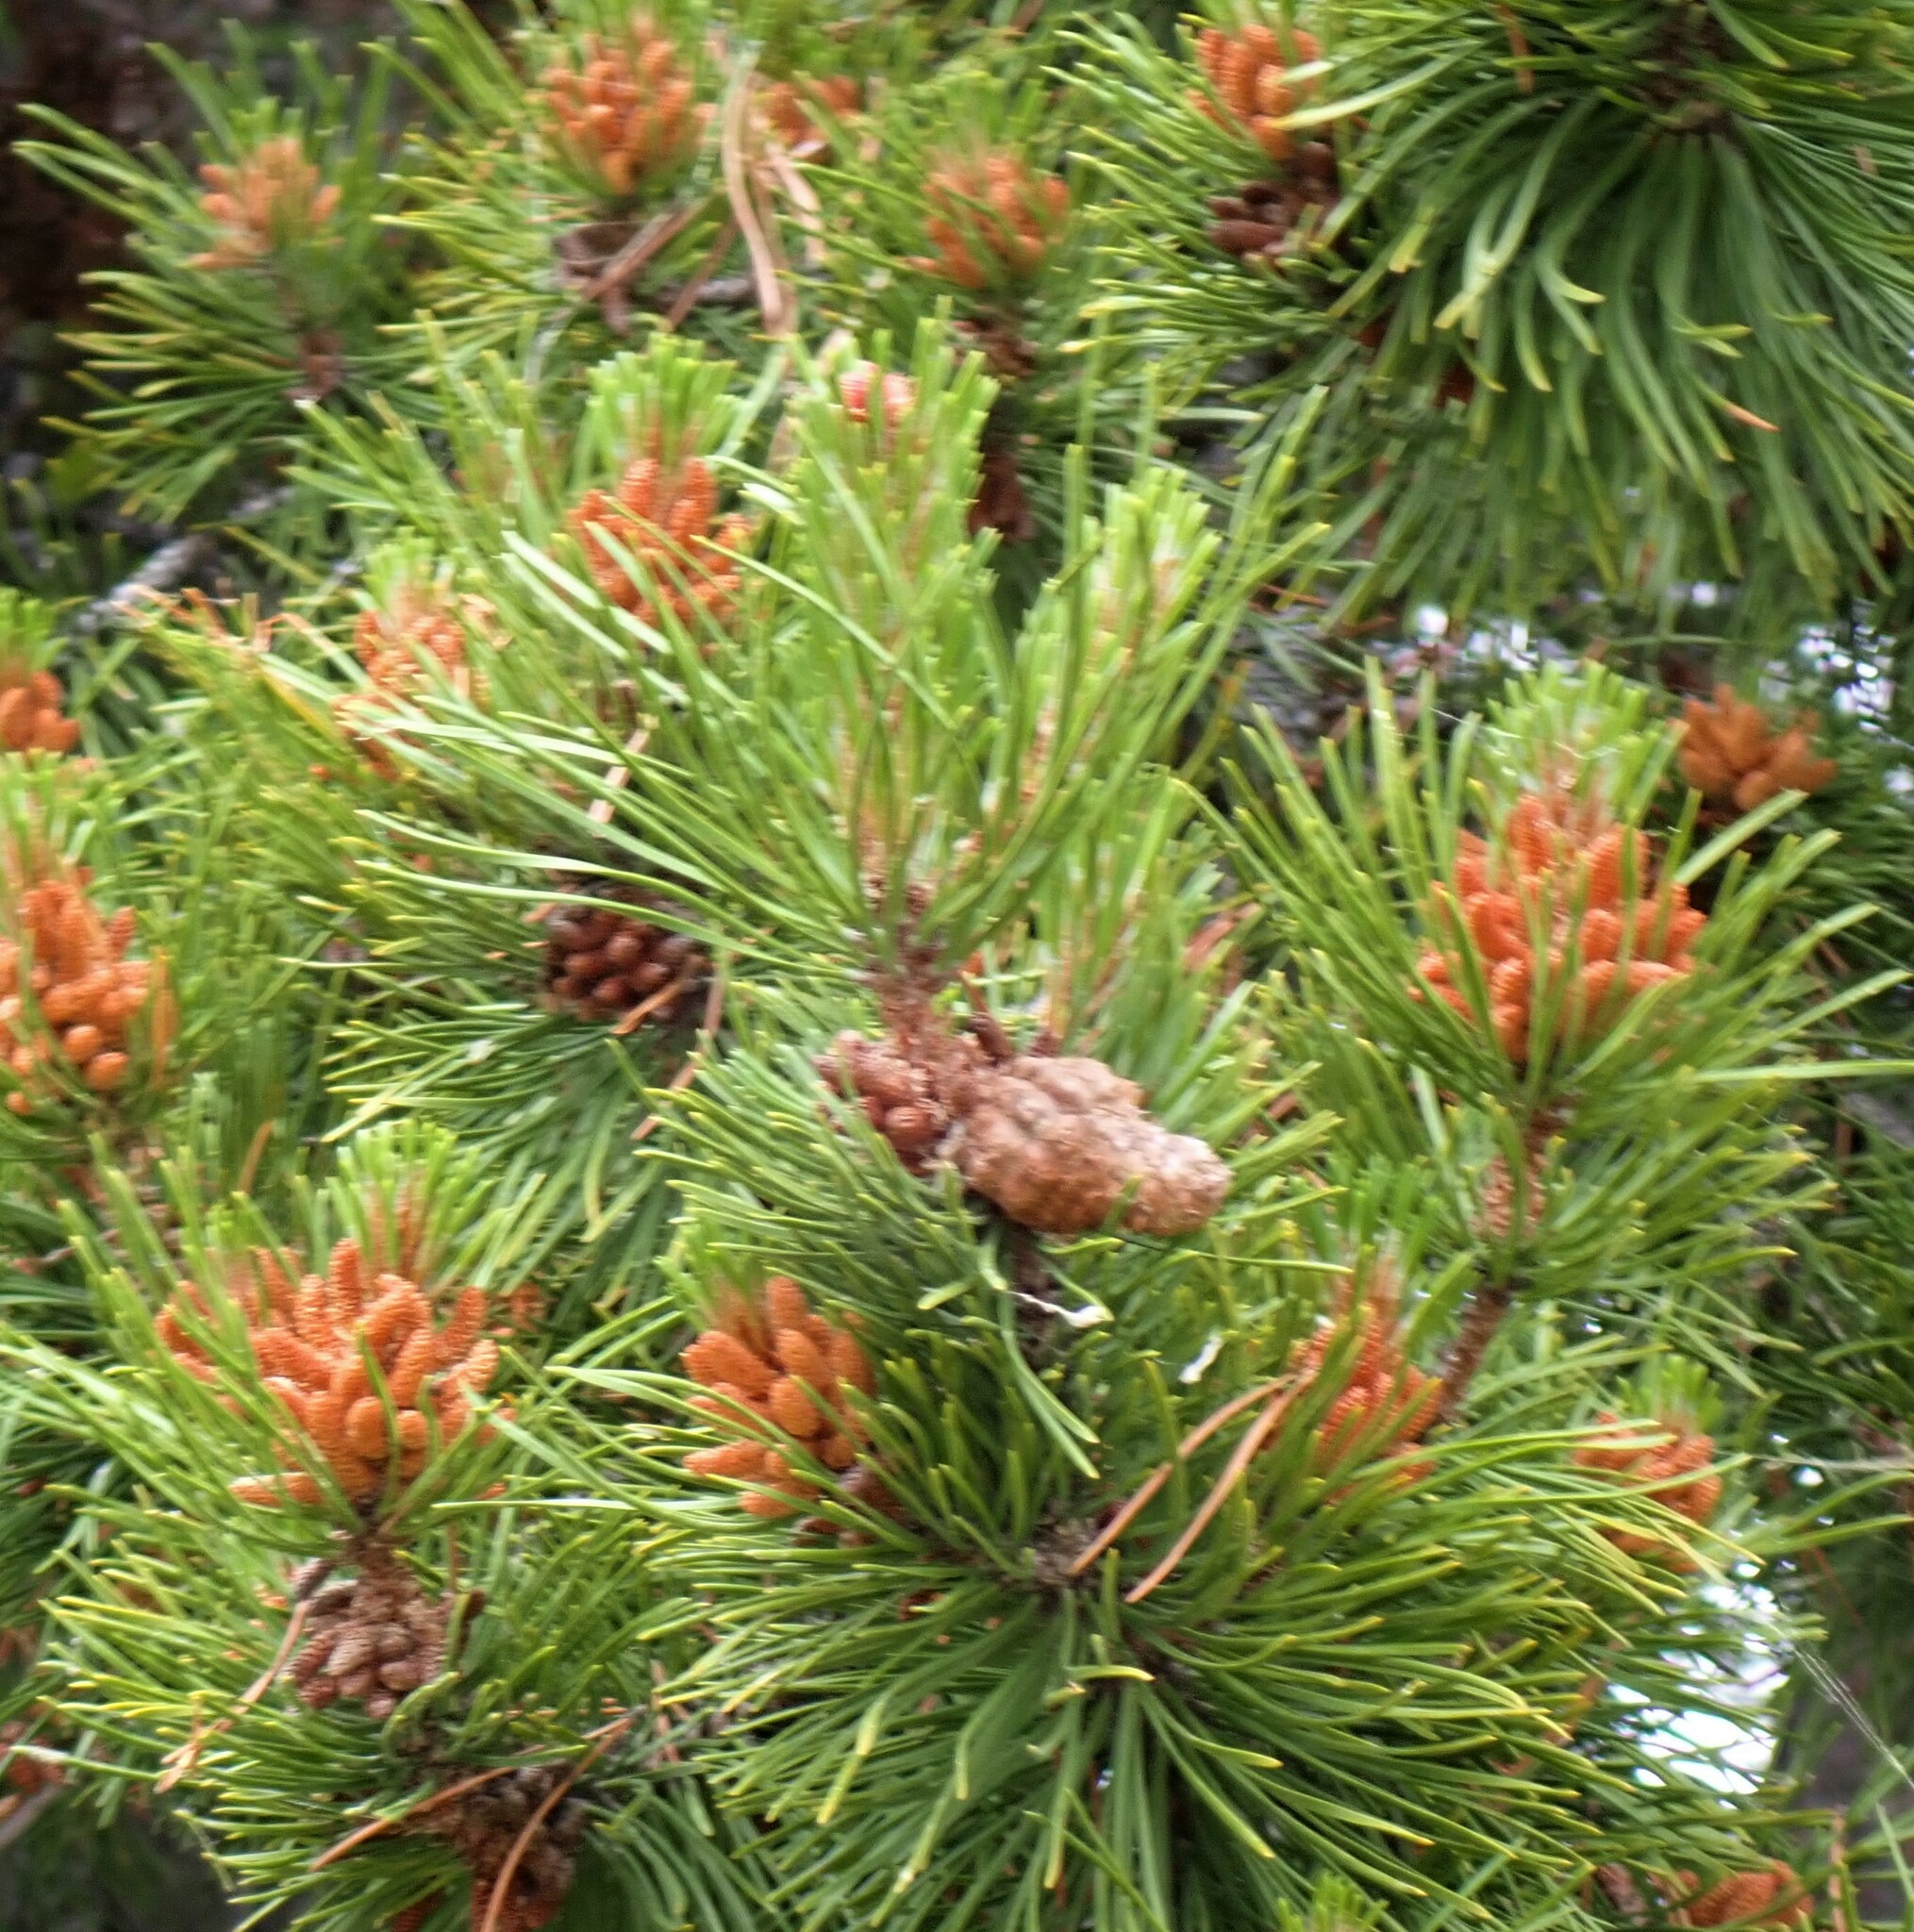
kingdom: Plantae
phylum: Tracheophyta
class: Pinopsida
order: Pinales
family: Pinaceae
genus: Pinus
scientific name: Pinus contorta
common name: Lodgepole pine
